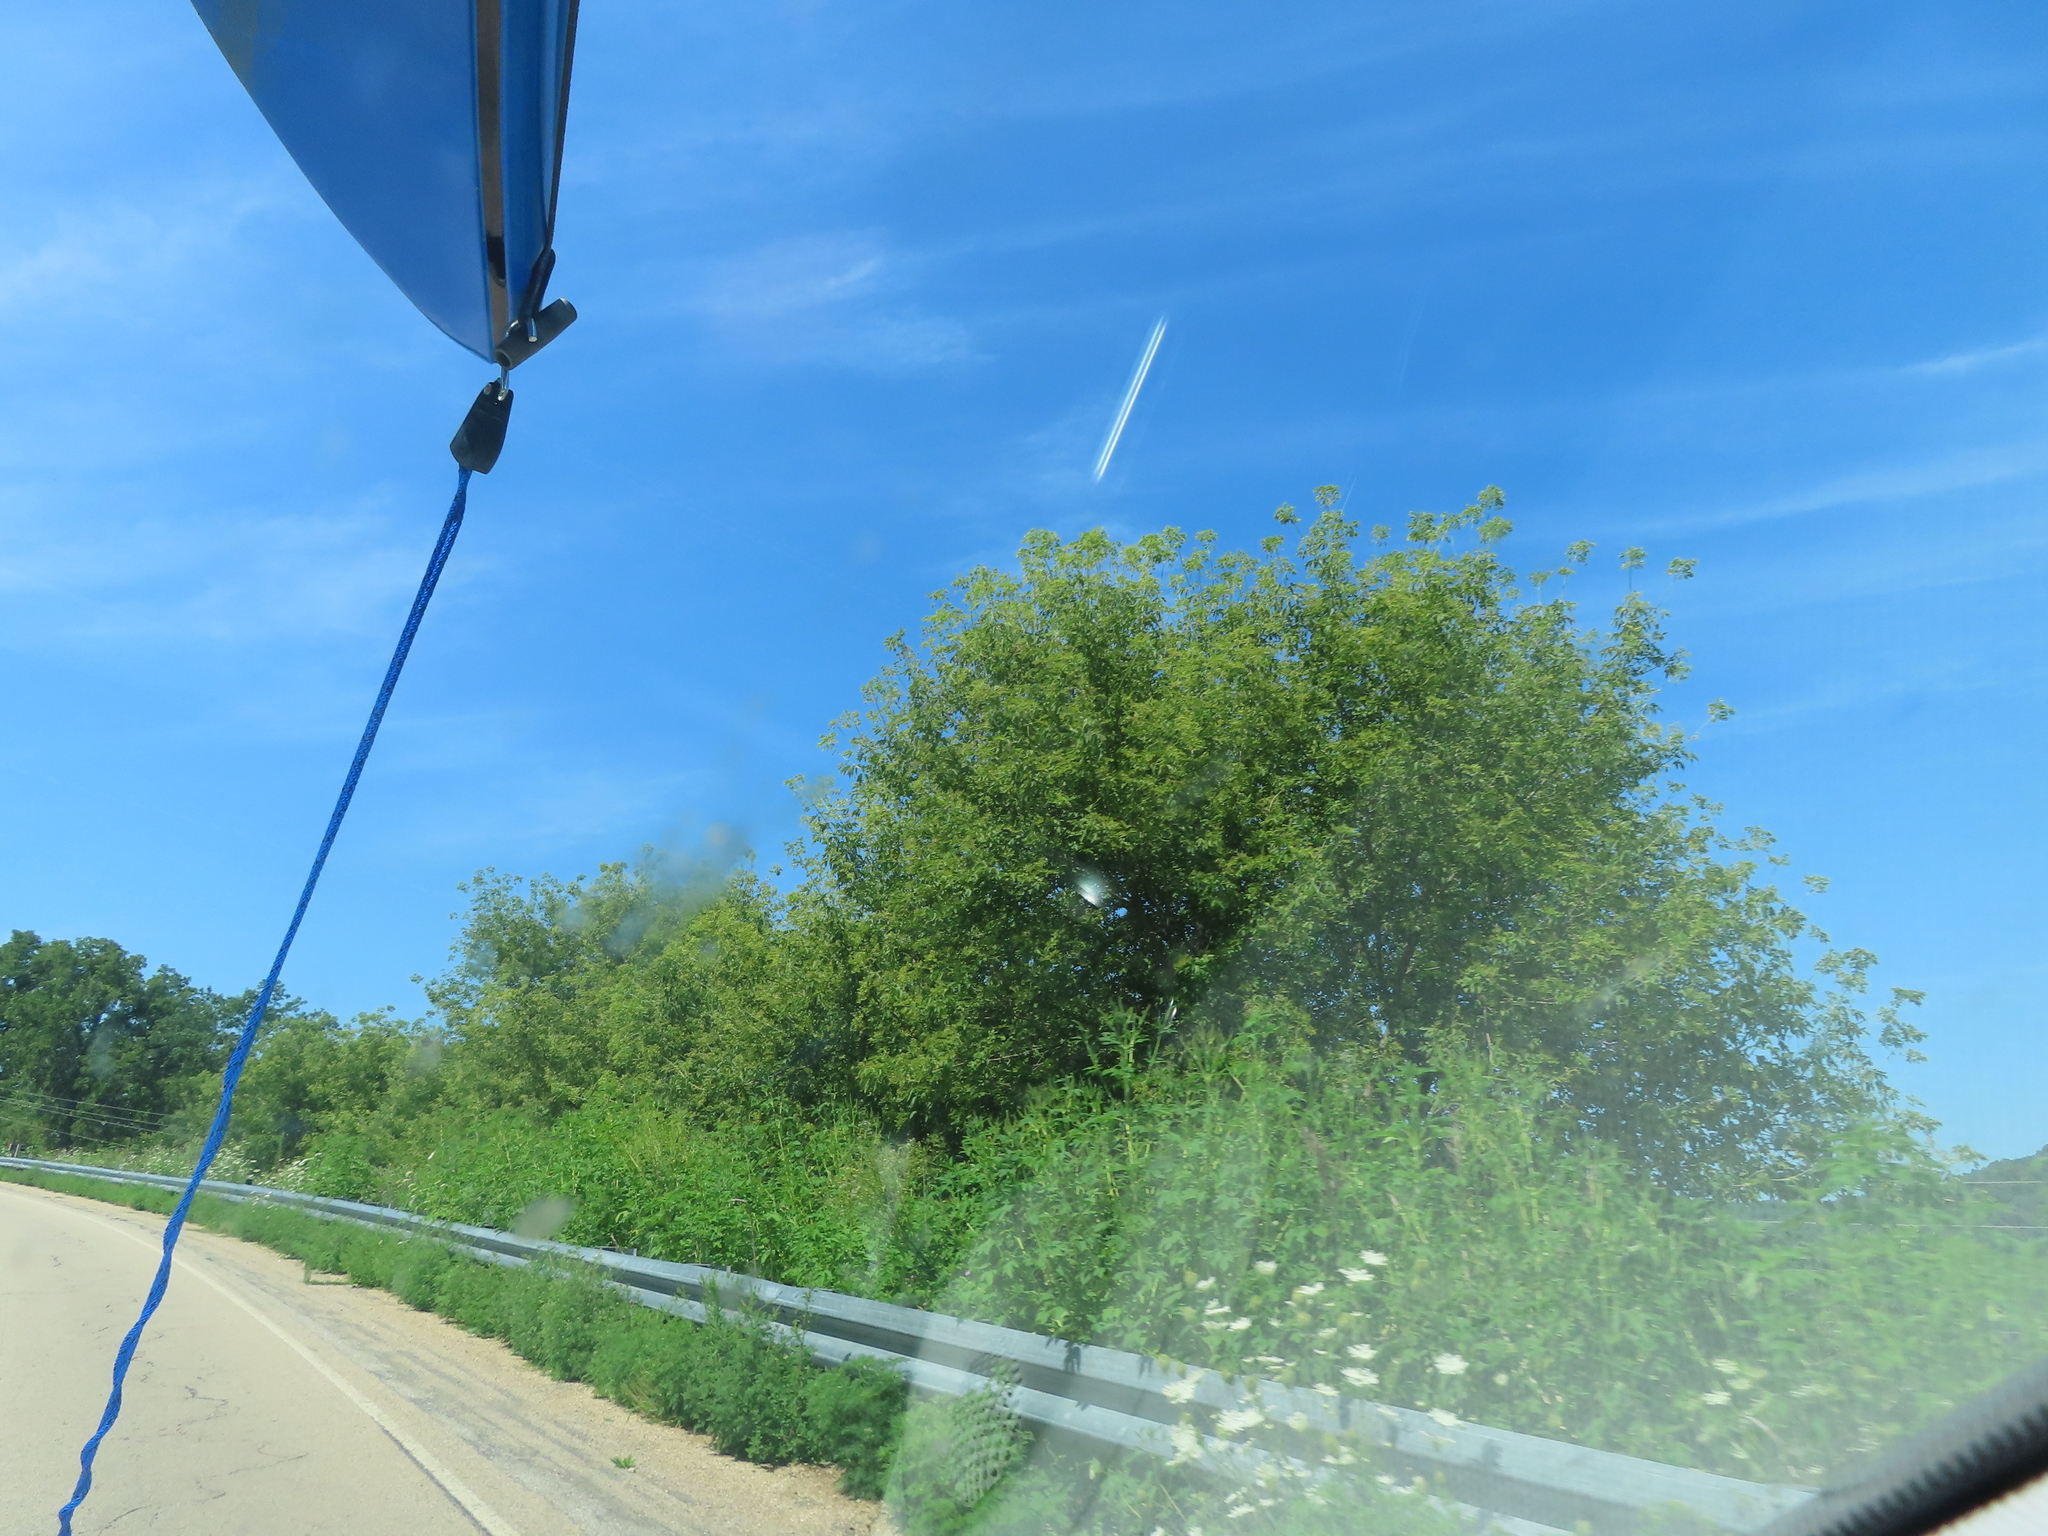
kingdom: Plantae
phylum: Tracheophyta
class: Magnoliopsida
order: Sapindales
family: Sapindaceae
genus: Acer
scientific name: Acer negundo
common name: Ashleaf maple
